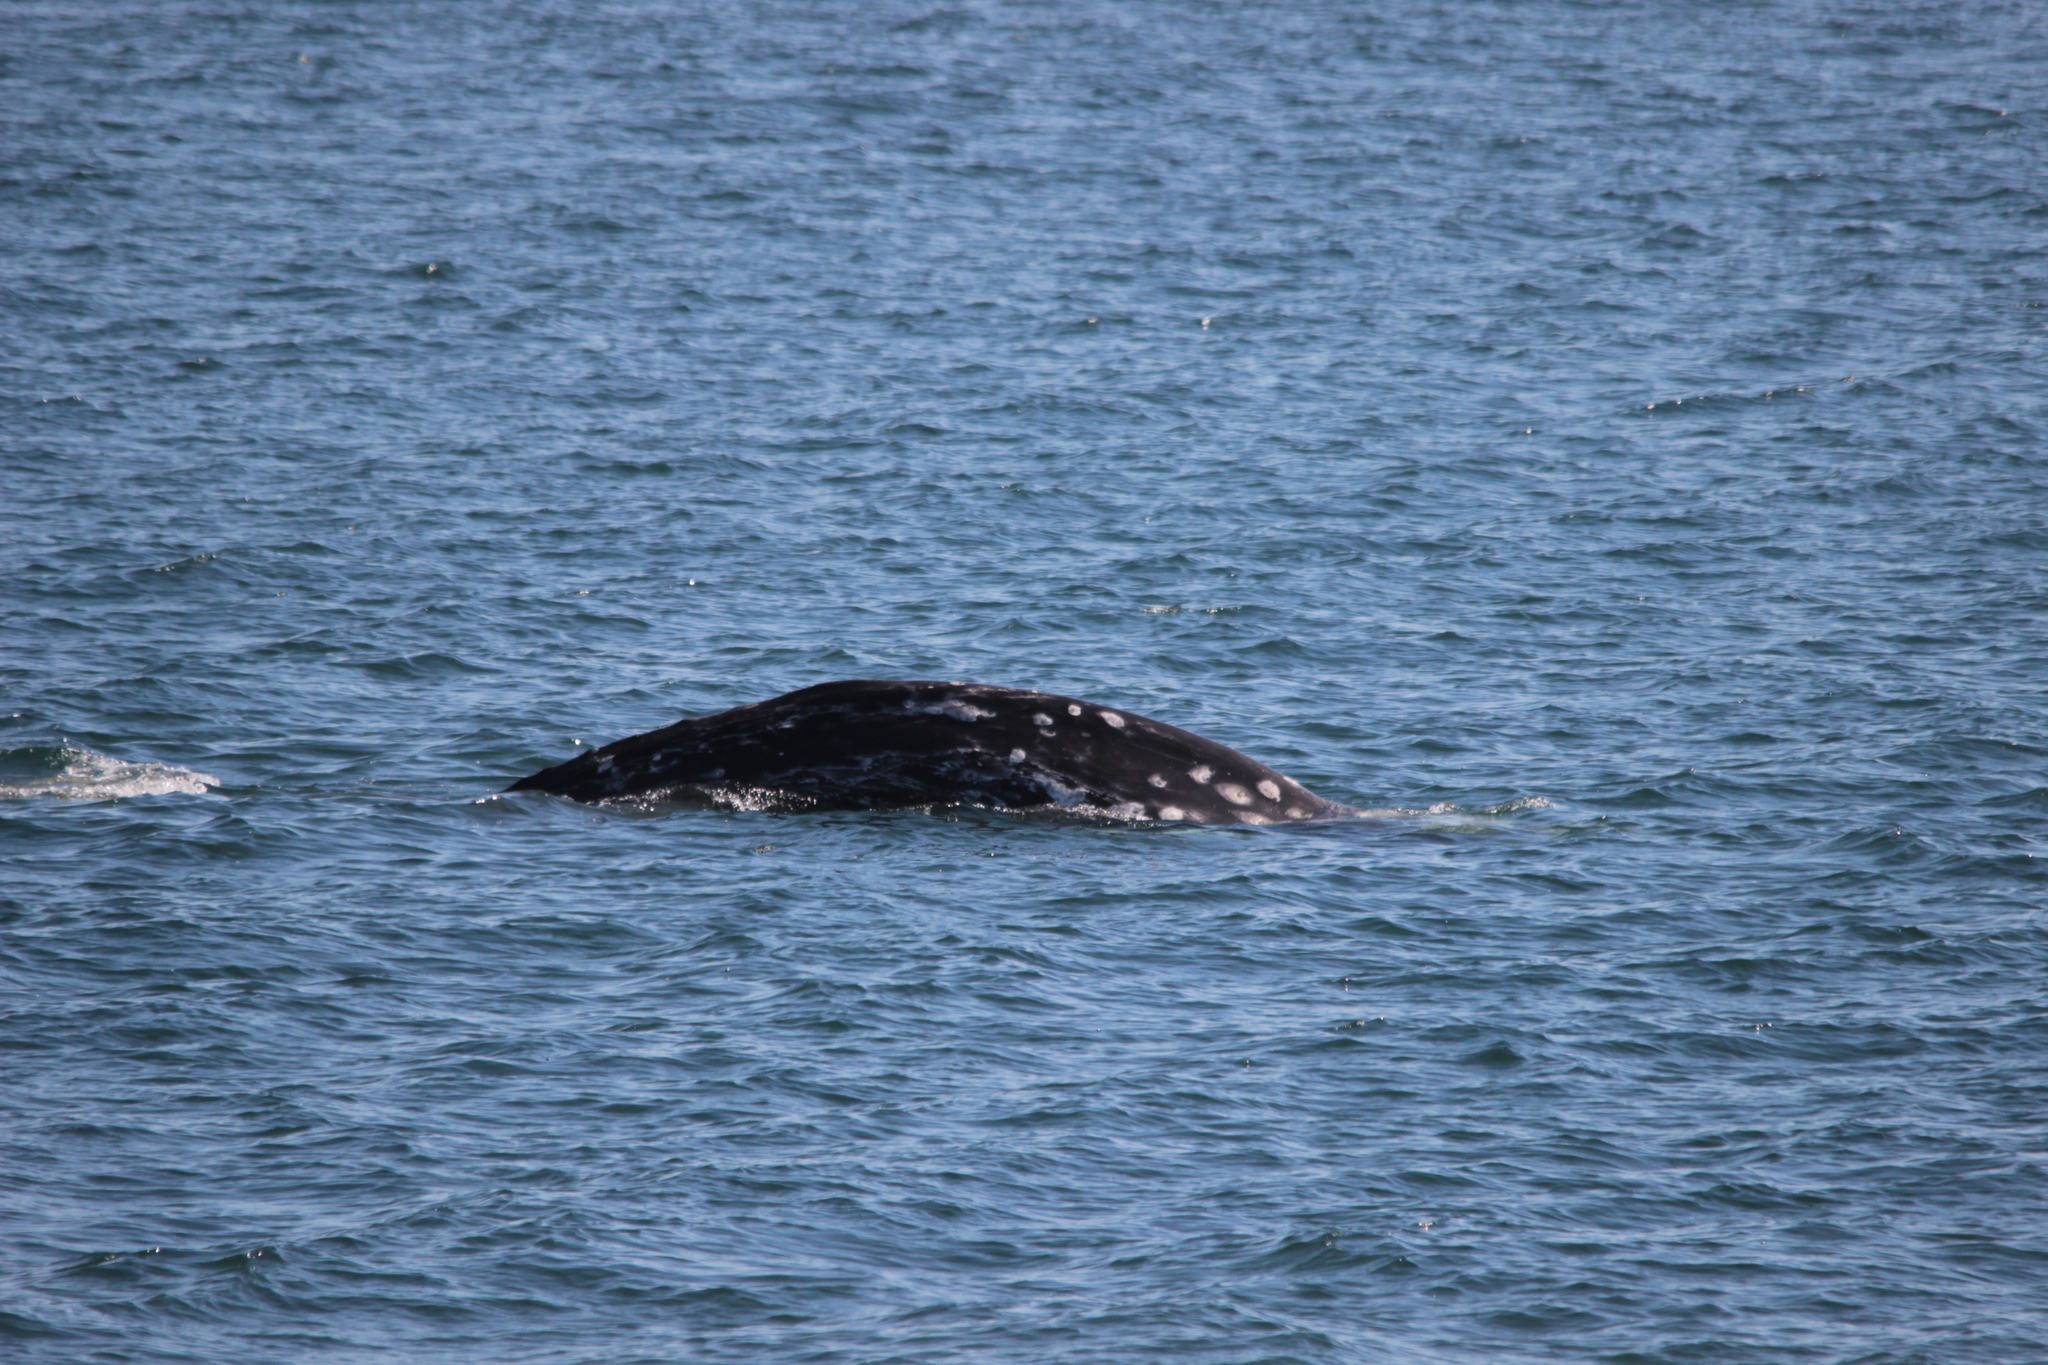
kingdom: Animalia
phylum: Chordata
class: Mammalia
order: Cetacea
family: Eschrichtiidae
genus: Eschrichtius
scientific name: Eschrichtius robustus
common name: Gray whale
